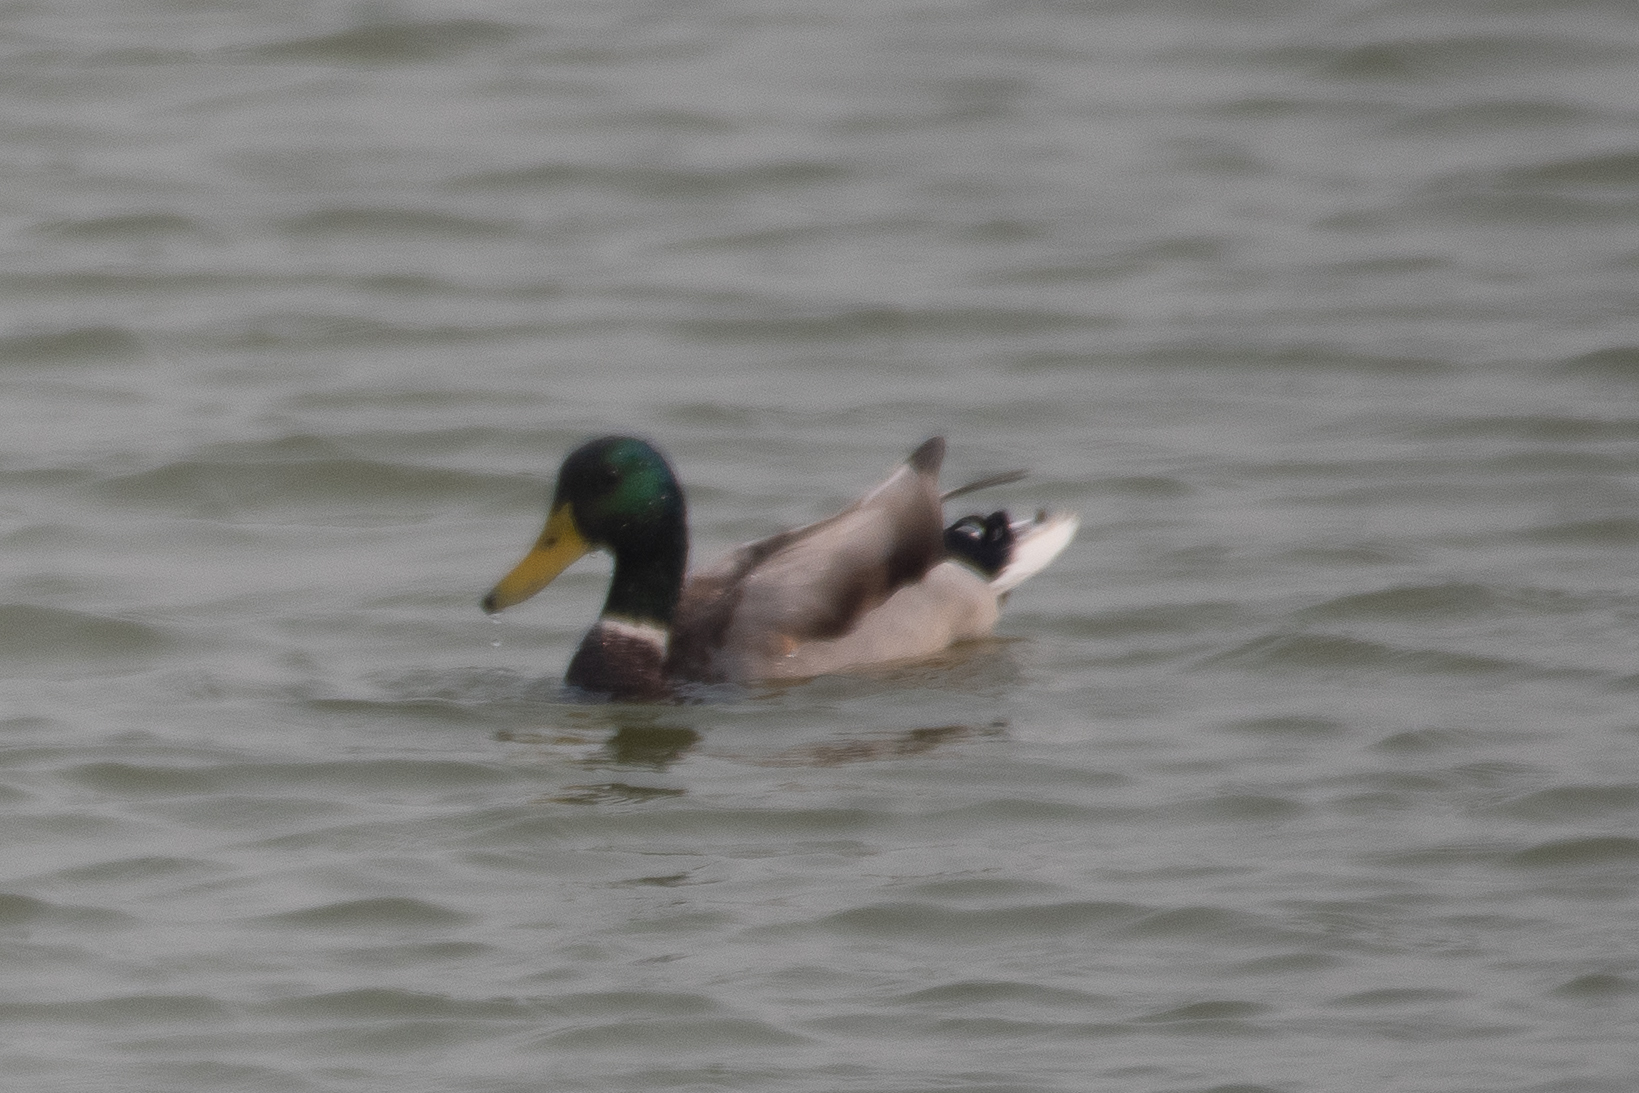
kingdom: Animalia
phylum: Chordata
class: Aves
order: Anseriformes
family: Anatidae
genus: Anas
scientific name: Anas platyrhynchos
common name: Mallard
